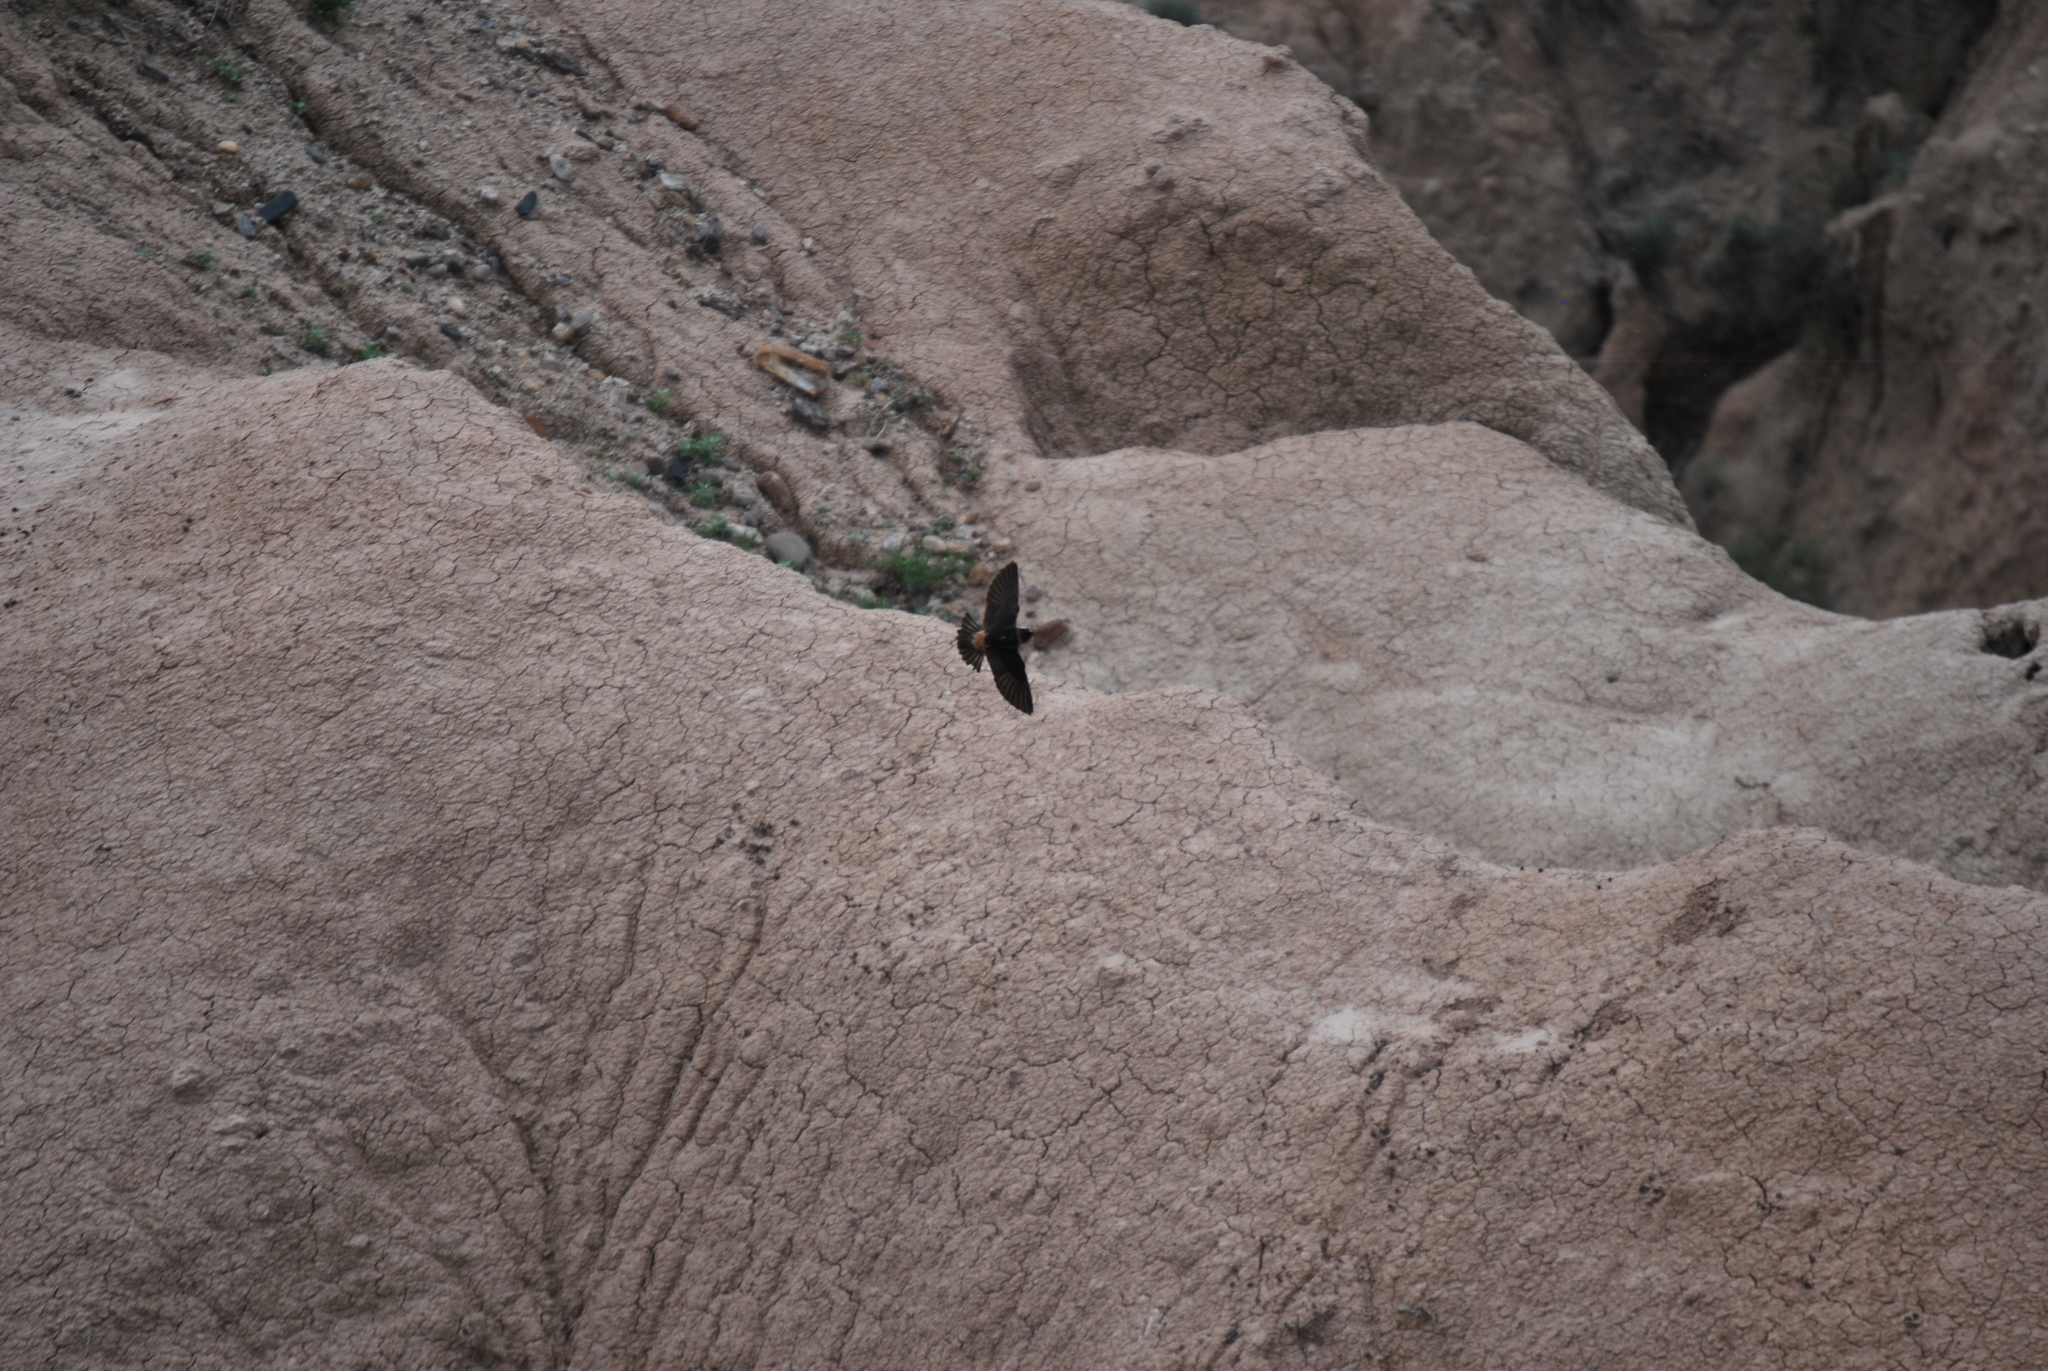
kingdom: Animalia
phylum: Chordata
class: Aves
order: Passeriformes
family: Hirundinidae
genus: Petrochelidon
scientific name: Petrochelidon pyrrhonota
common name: American cliff swallow
